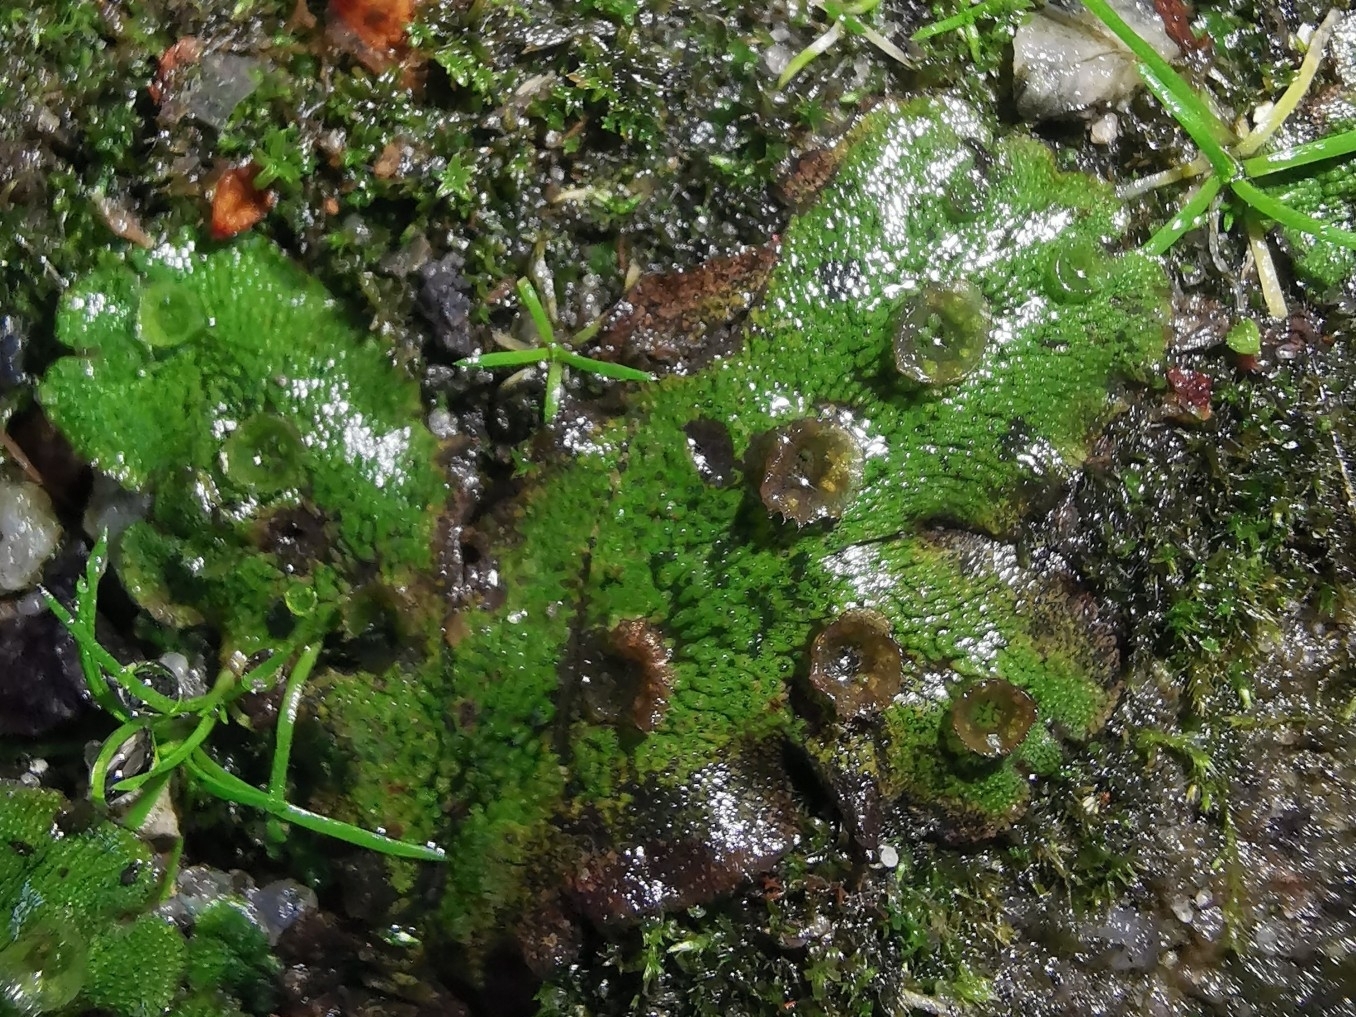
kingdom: Plantae
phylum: Marchantiophyta
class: Marchantiopsida
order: Marchantiales
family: Marchantiaceae
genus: Marchantia
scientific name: Marchantia polymorpha
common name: Common liverwort
